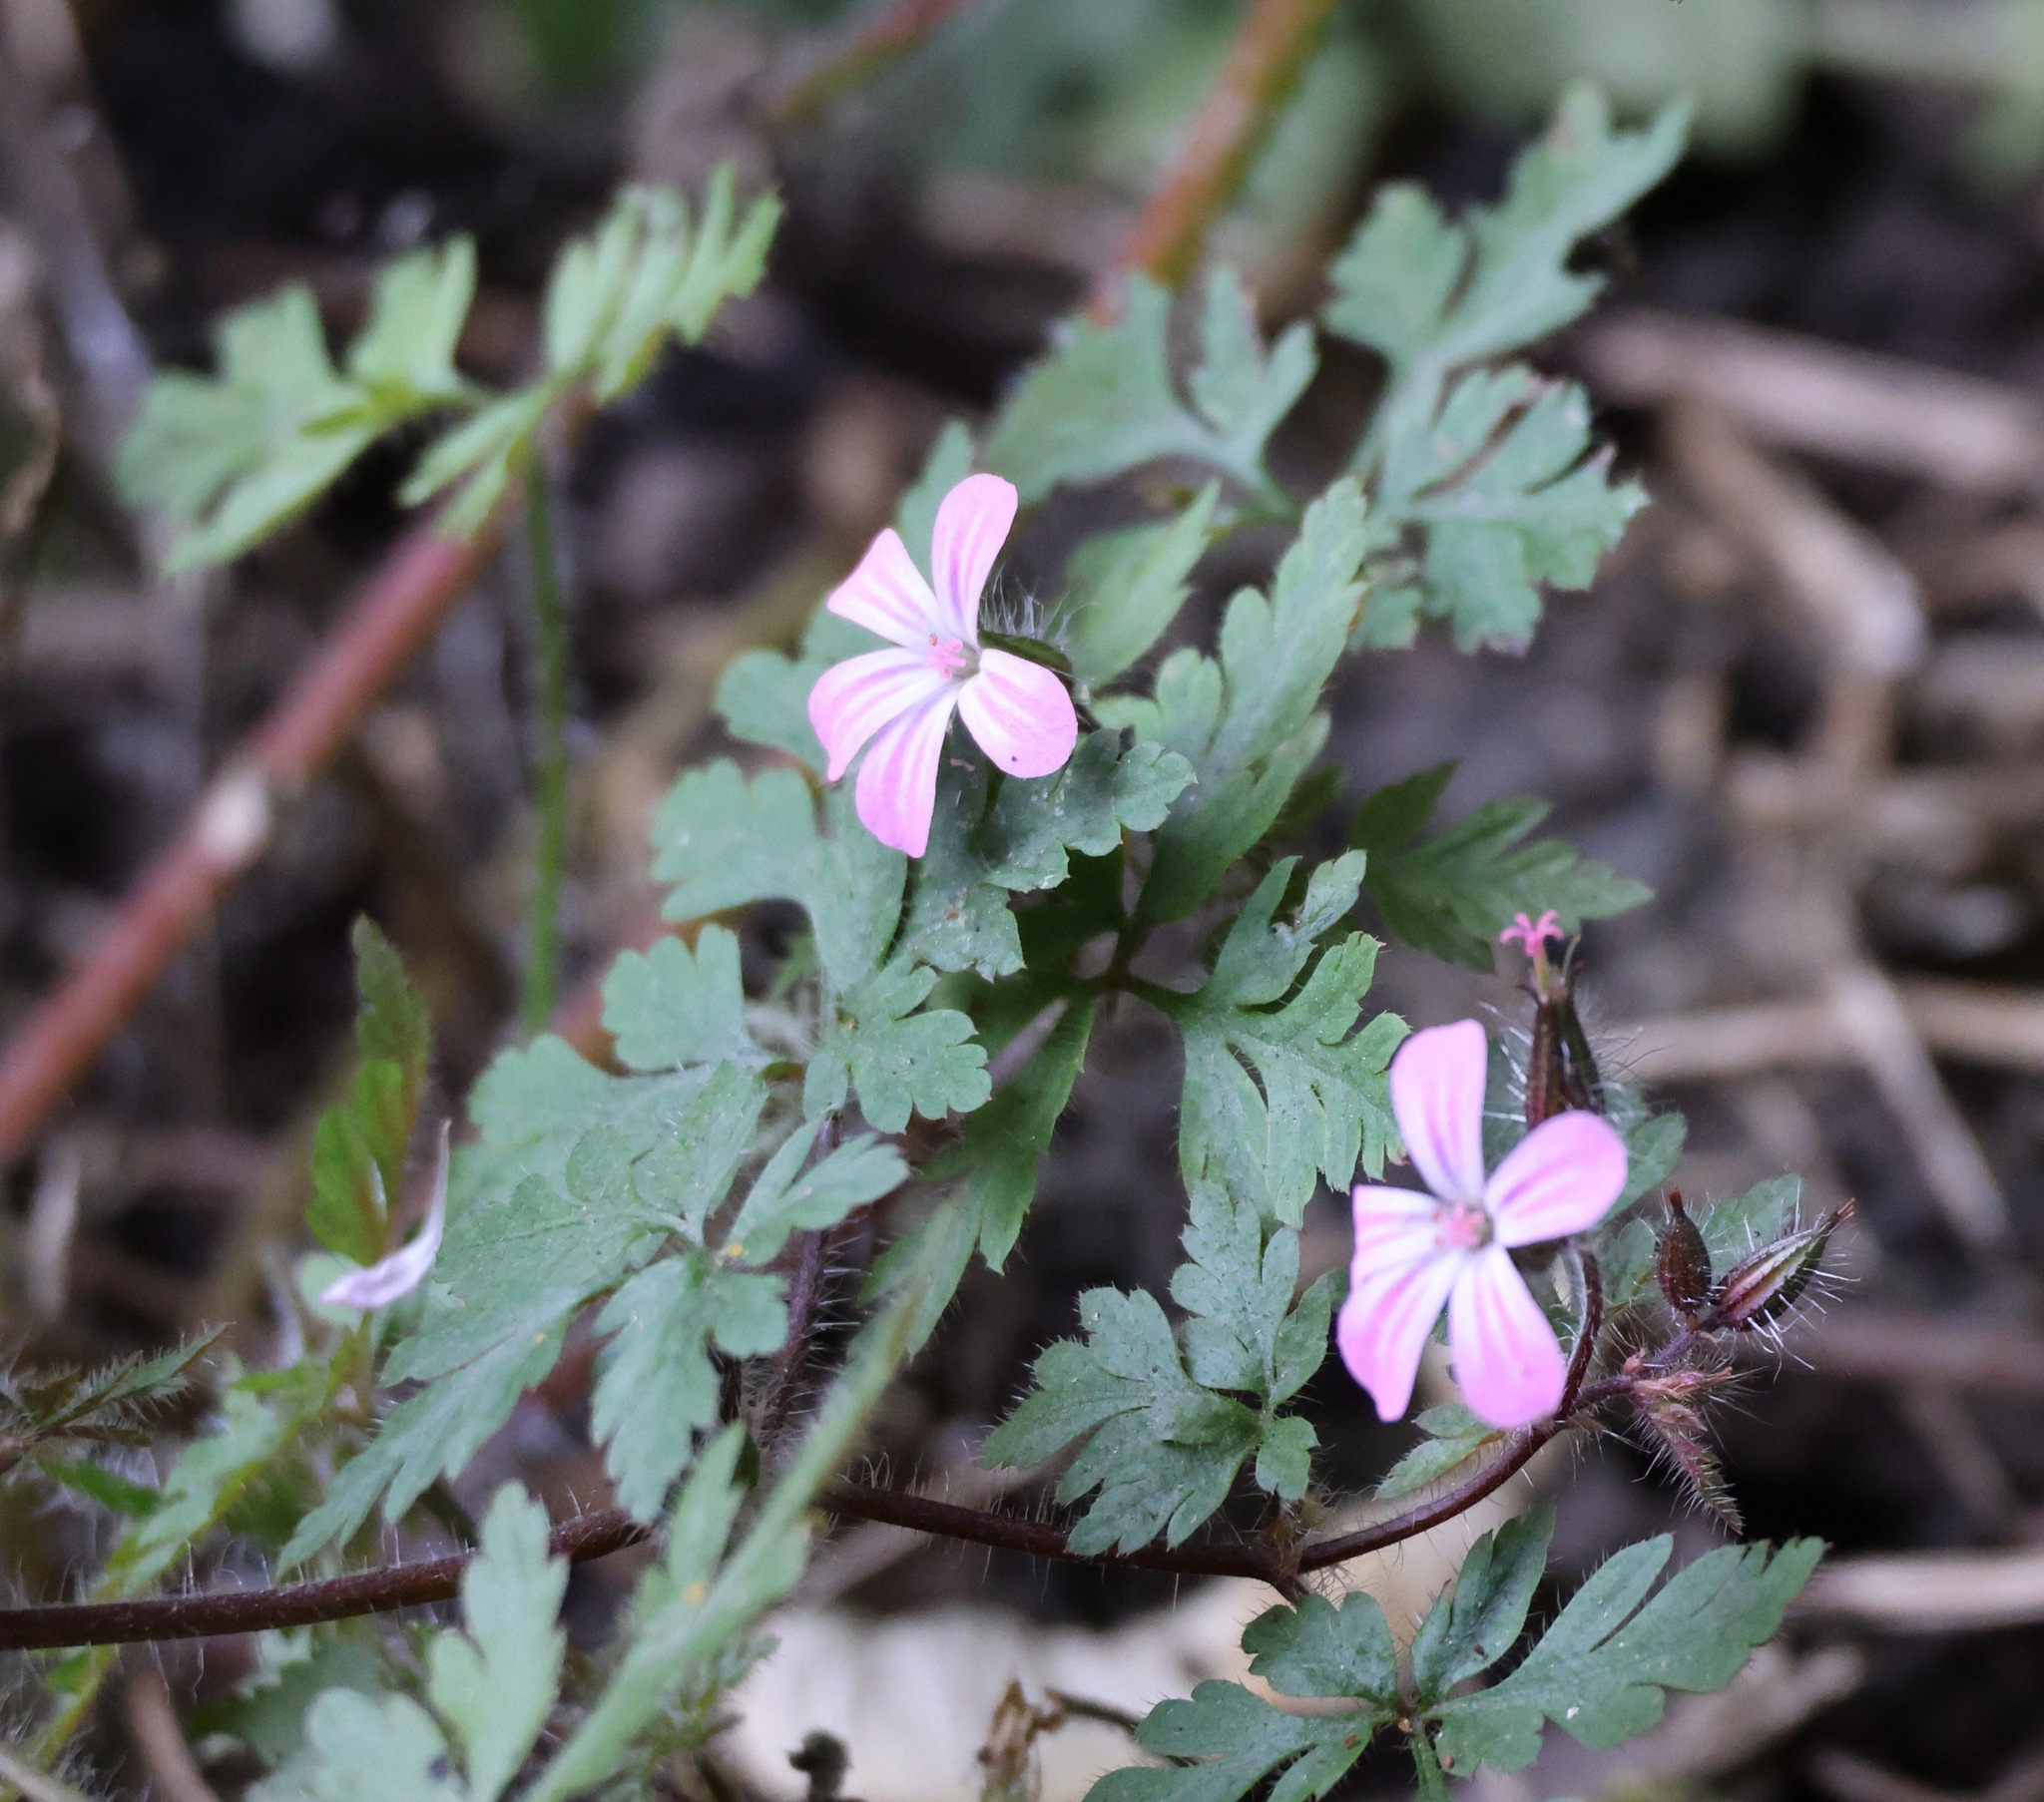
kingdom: Plantae
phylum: Tracheophyta
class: Magnoliopsida
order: Geraniales
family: Geraniaceae
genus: Geranium
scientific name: Geranium robertianum
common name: Herb-robert
